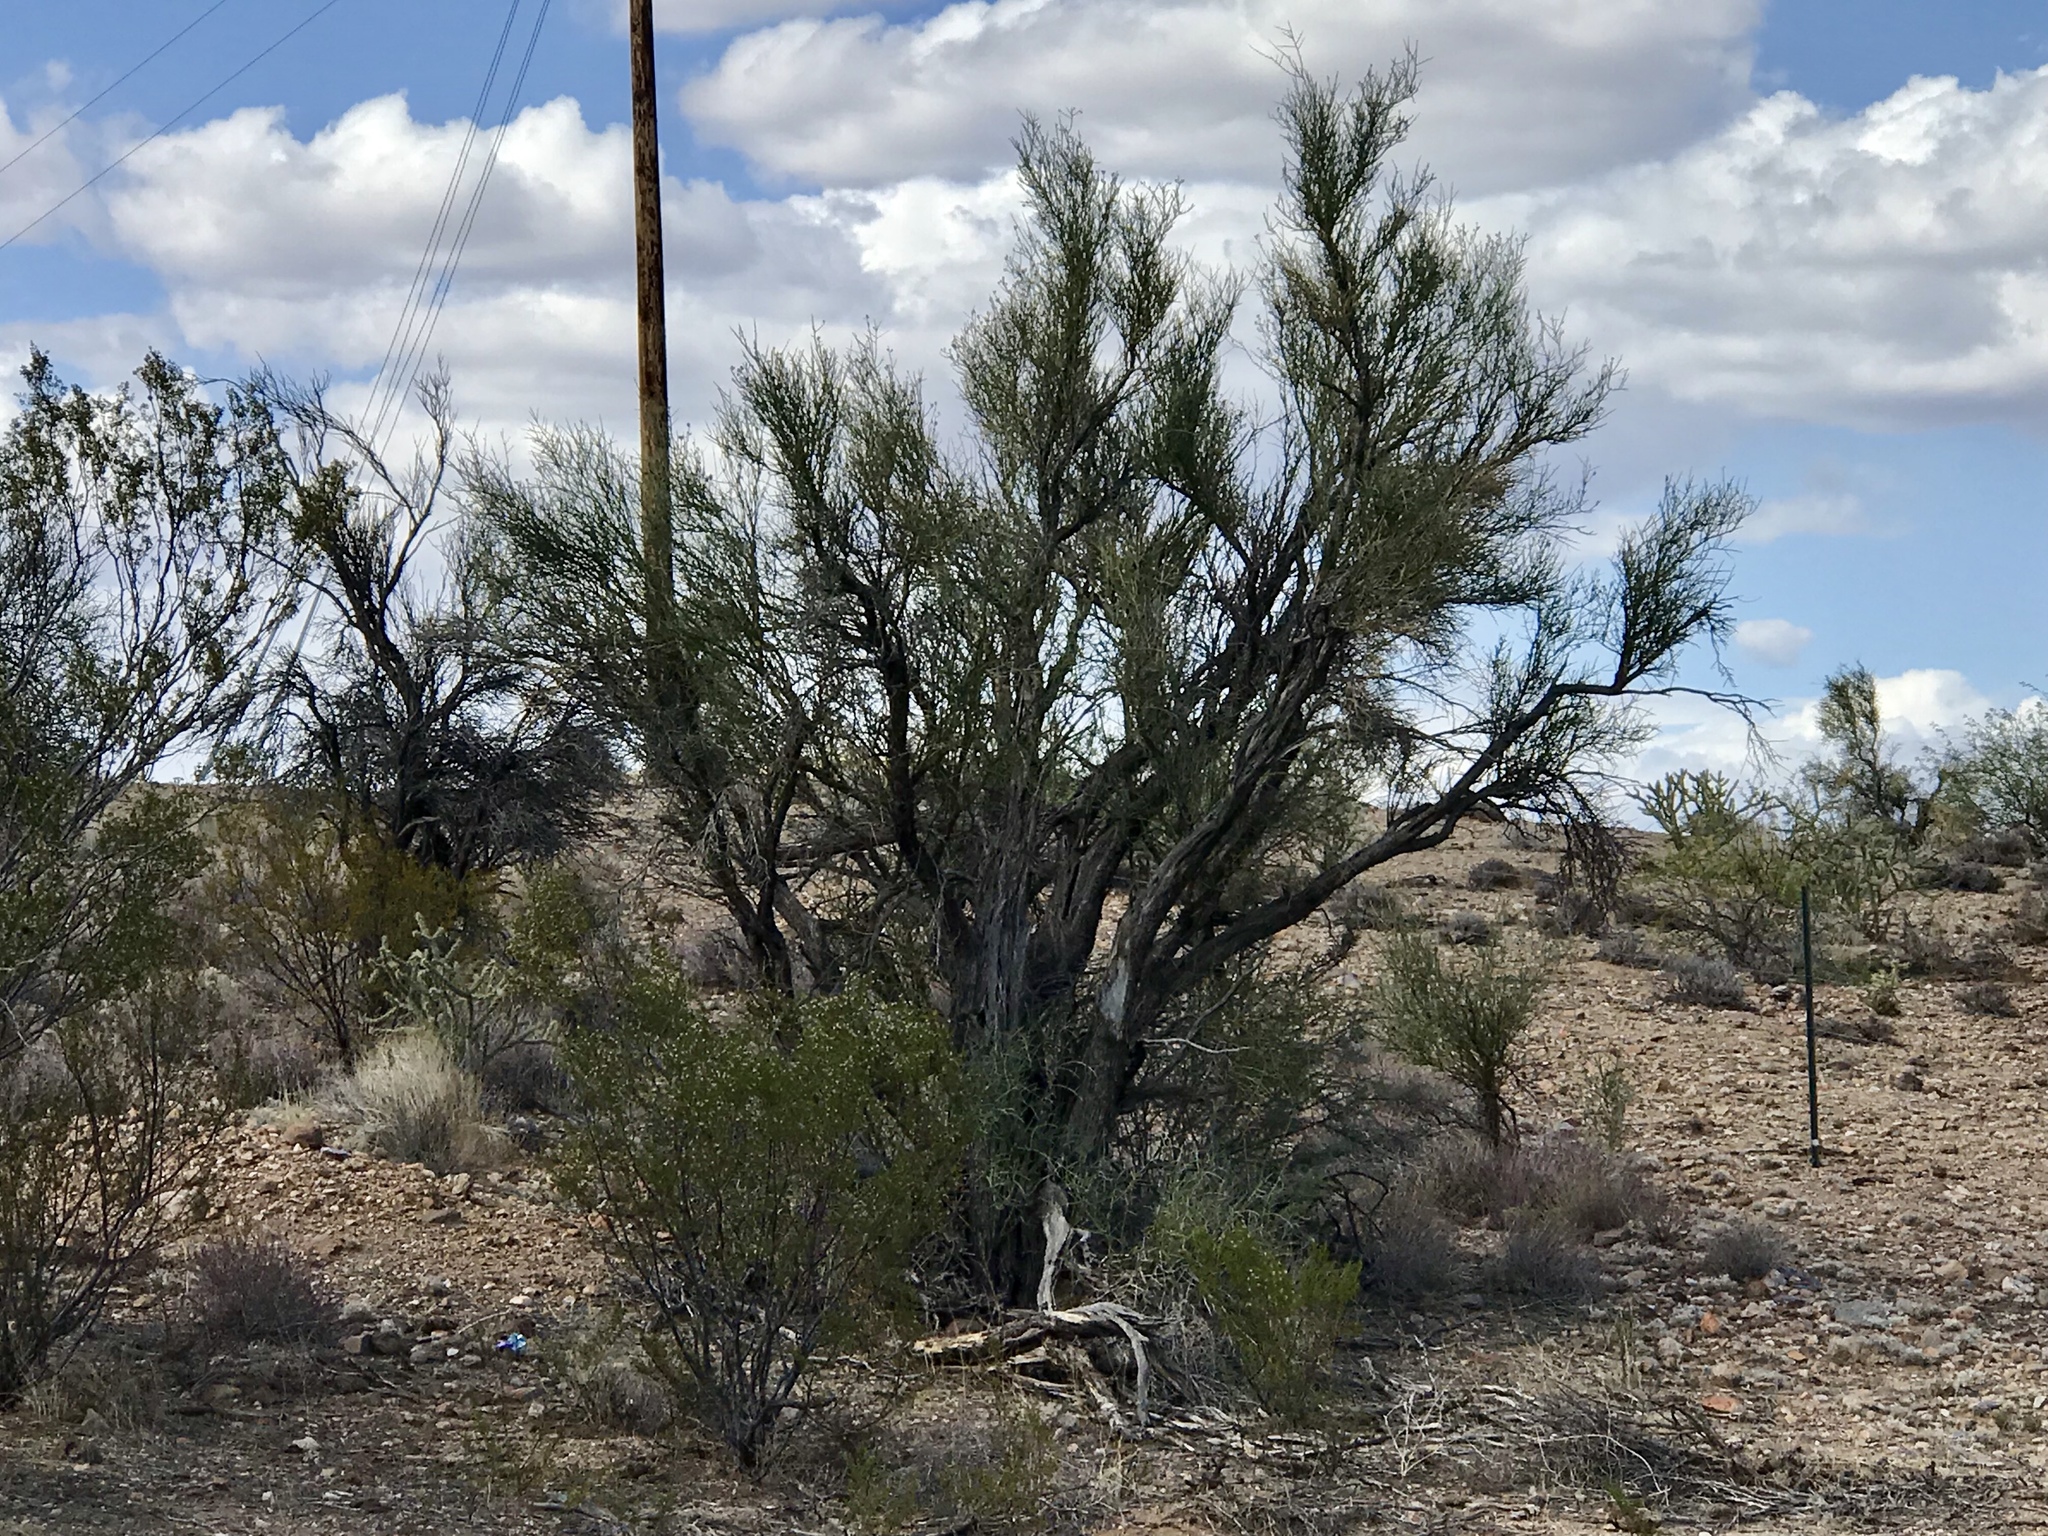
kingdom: Plantae
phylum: Tracheophyta
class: Magnoliopsida
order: Celastrales
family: Celastraceae
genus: Canotia
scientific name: Canotia holacantha
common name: Crucifixion thorns
